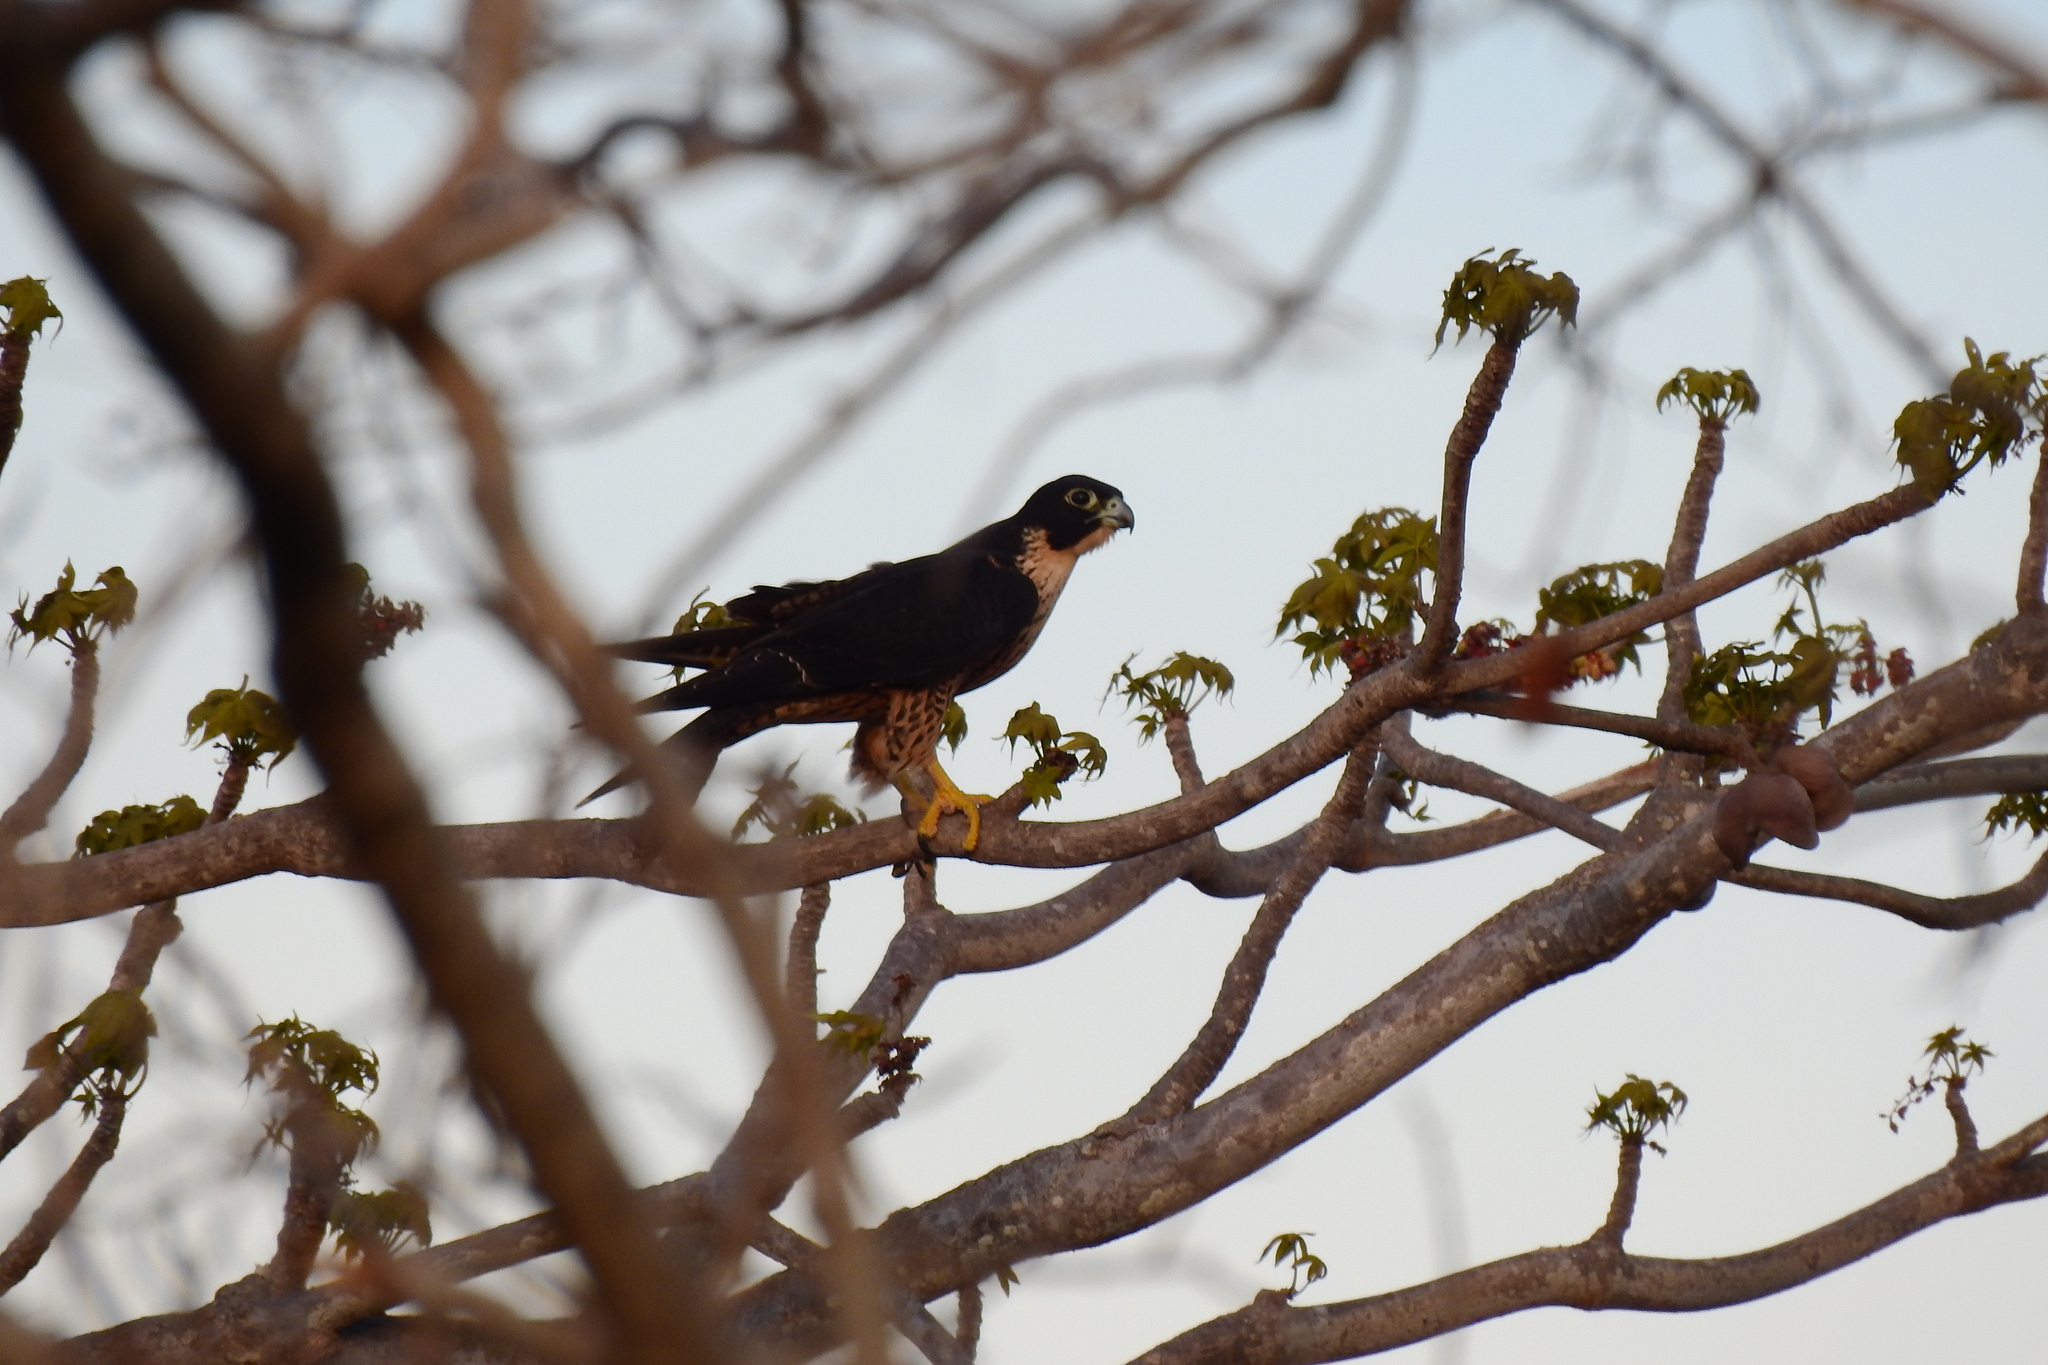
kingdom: Animalia
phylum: Chordata
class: Aves
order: Falconiformes
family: Falconidae
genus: Falco
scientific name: Falco peregrinus
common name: Peregrine falcon
